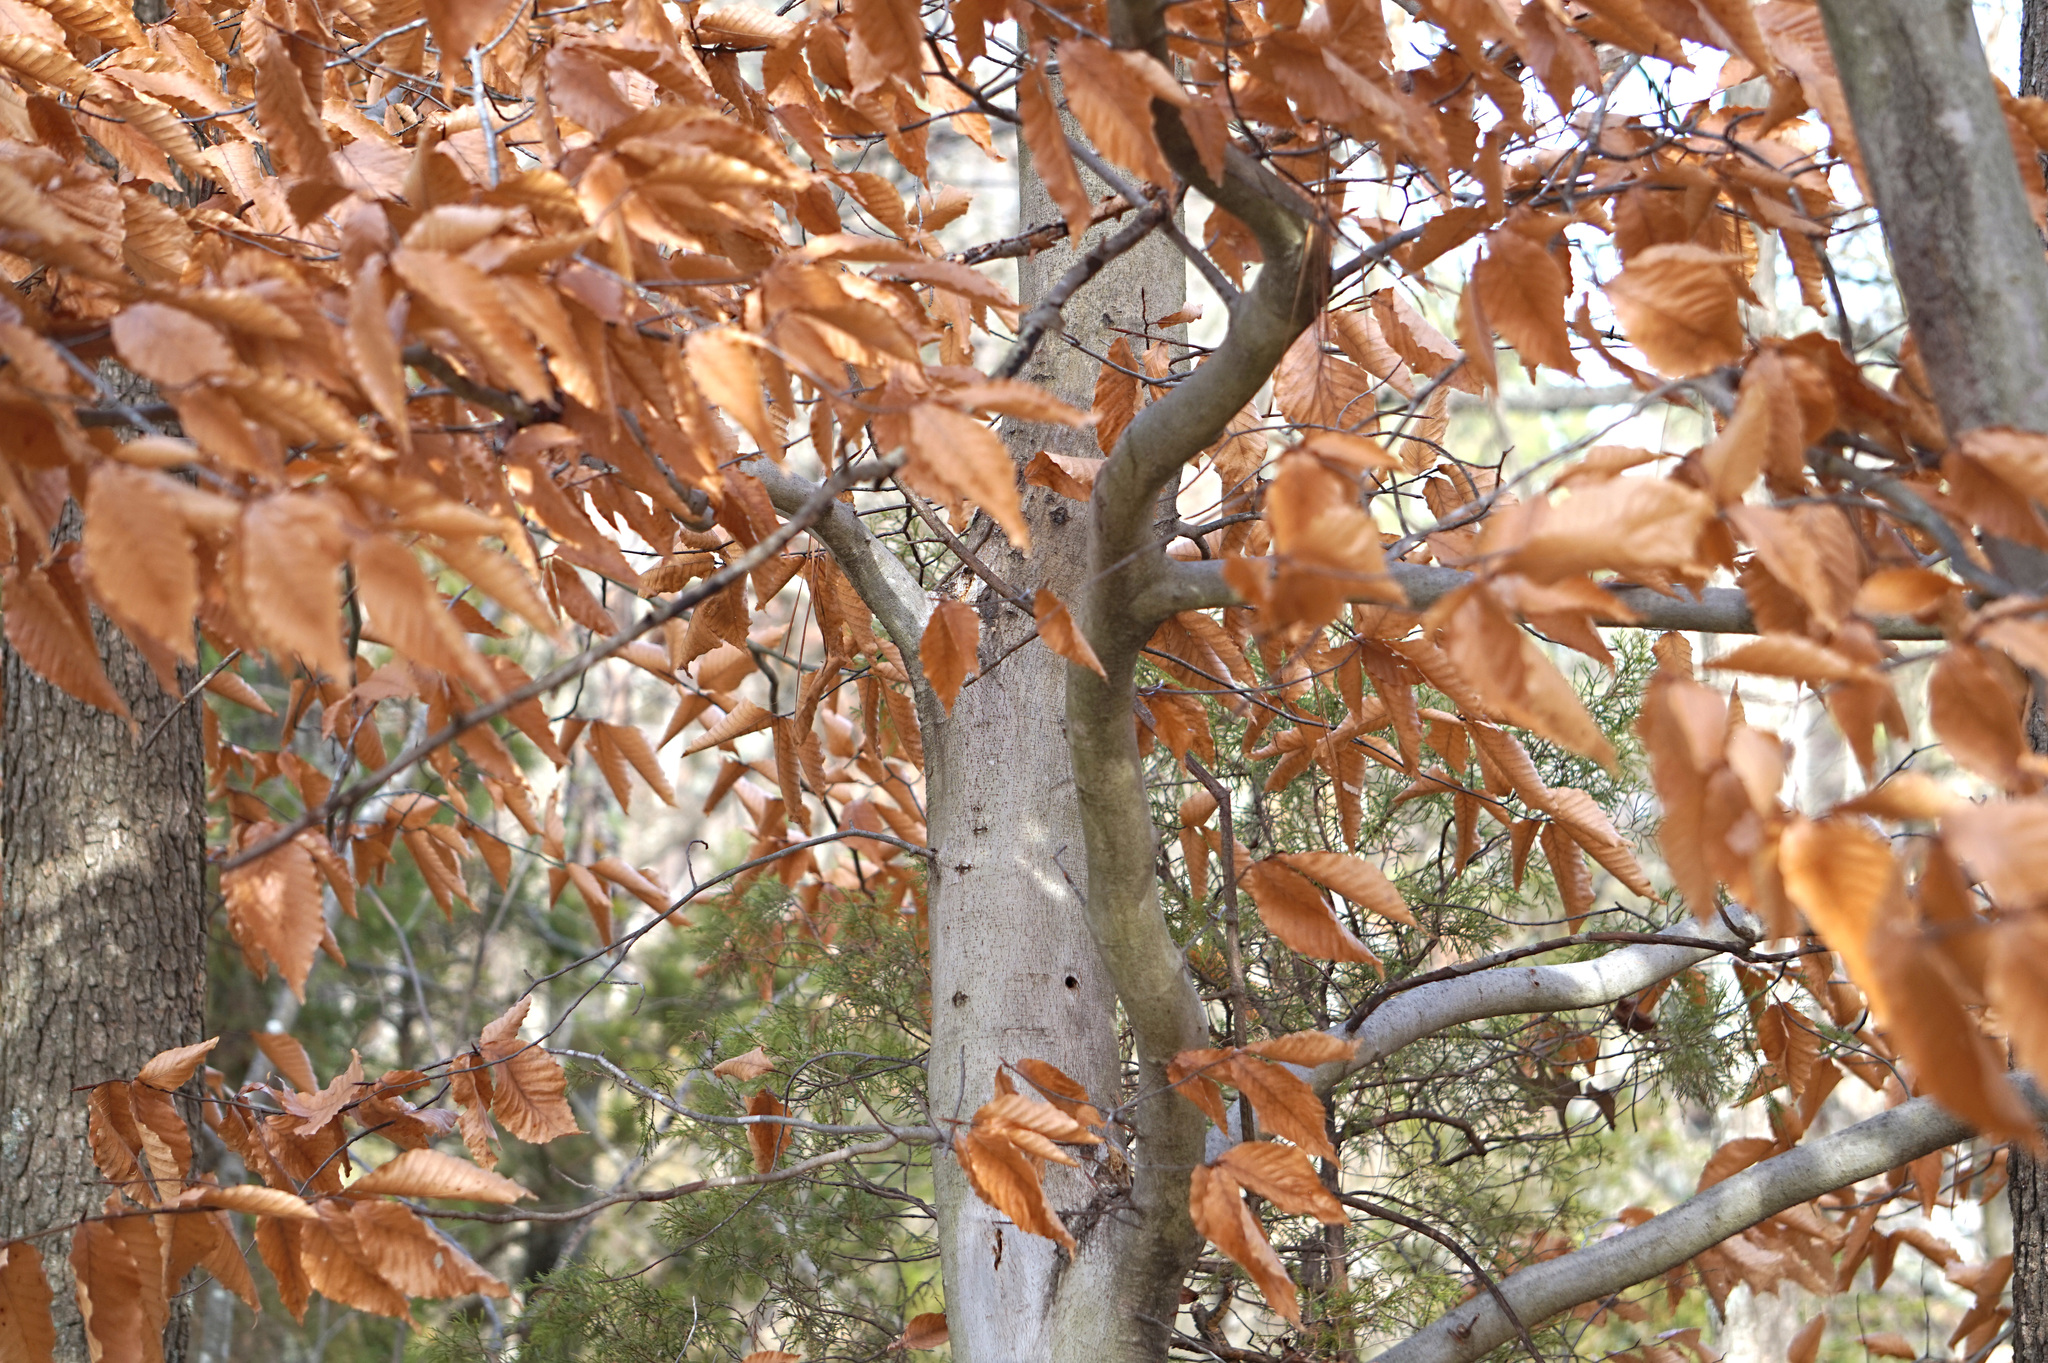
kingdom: Plantae
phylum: Tracheophyta
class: Magnoliopsida
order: Fagales
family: Fagaceae
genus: Fagus
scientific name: Fagus grandifolia
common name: American beech
